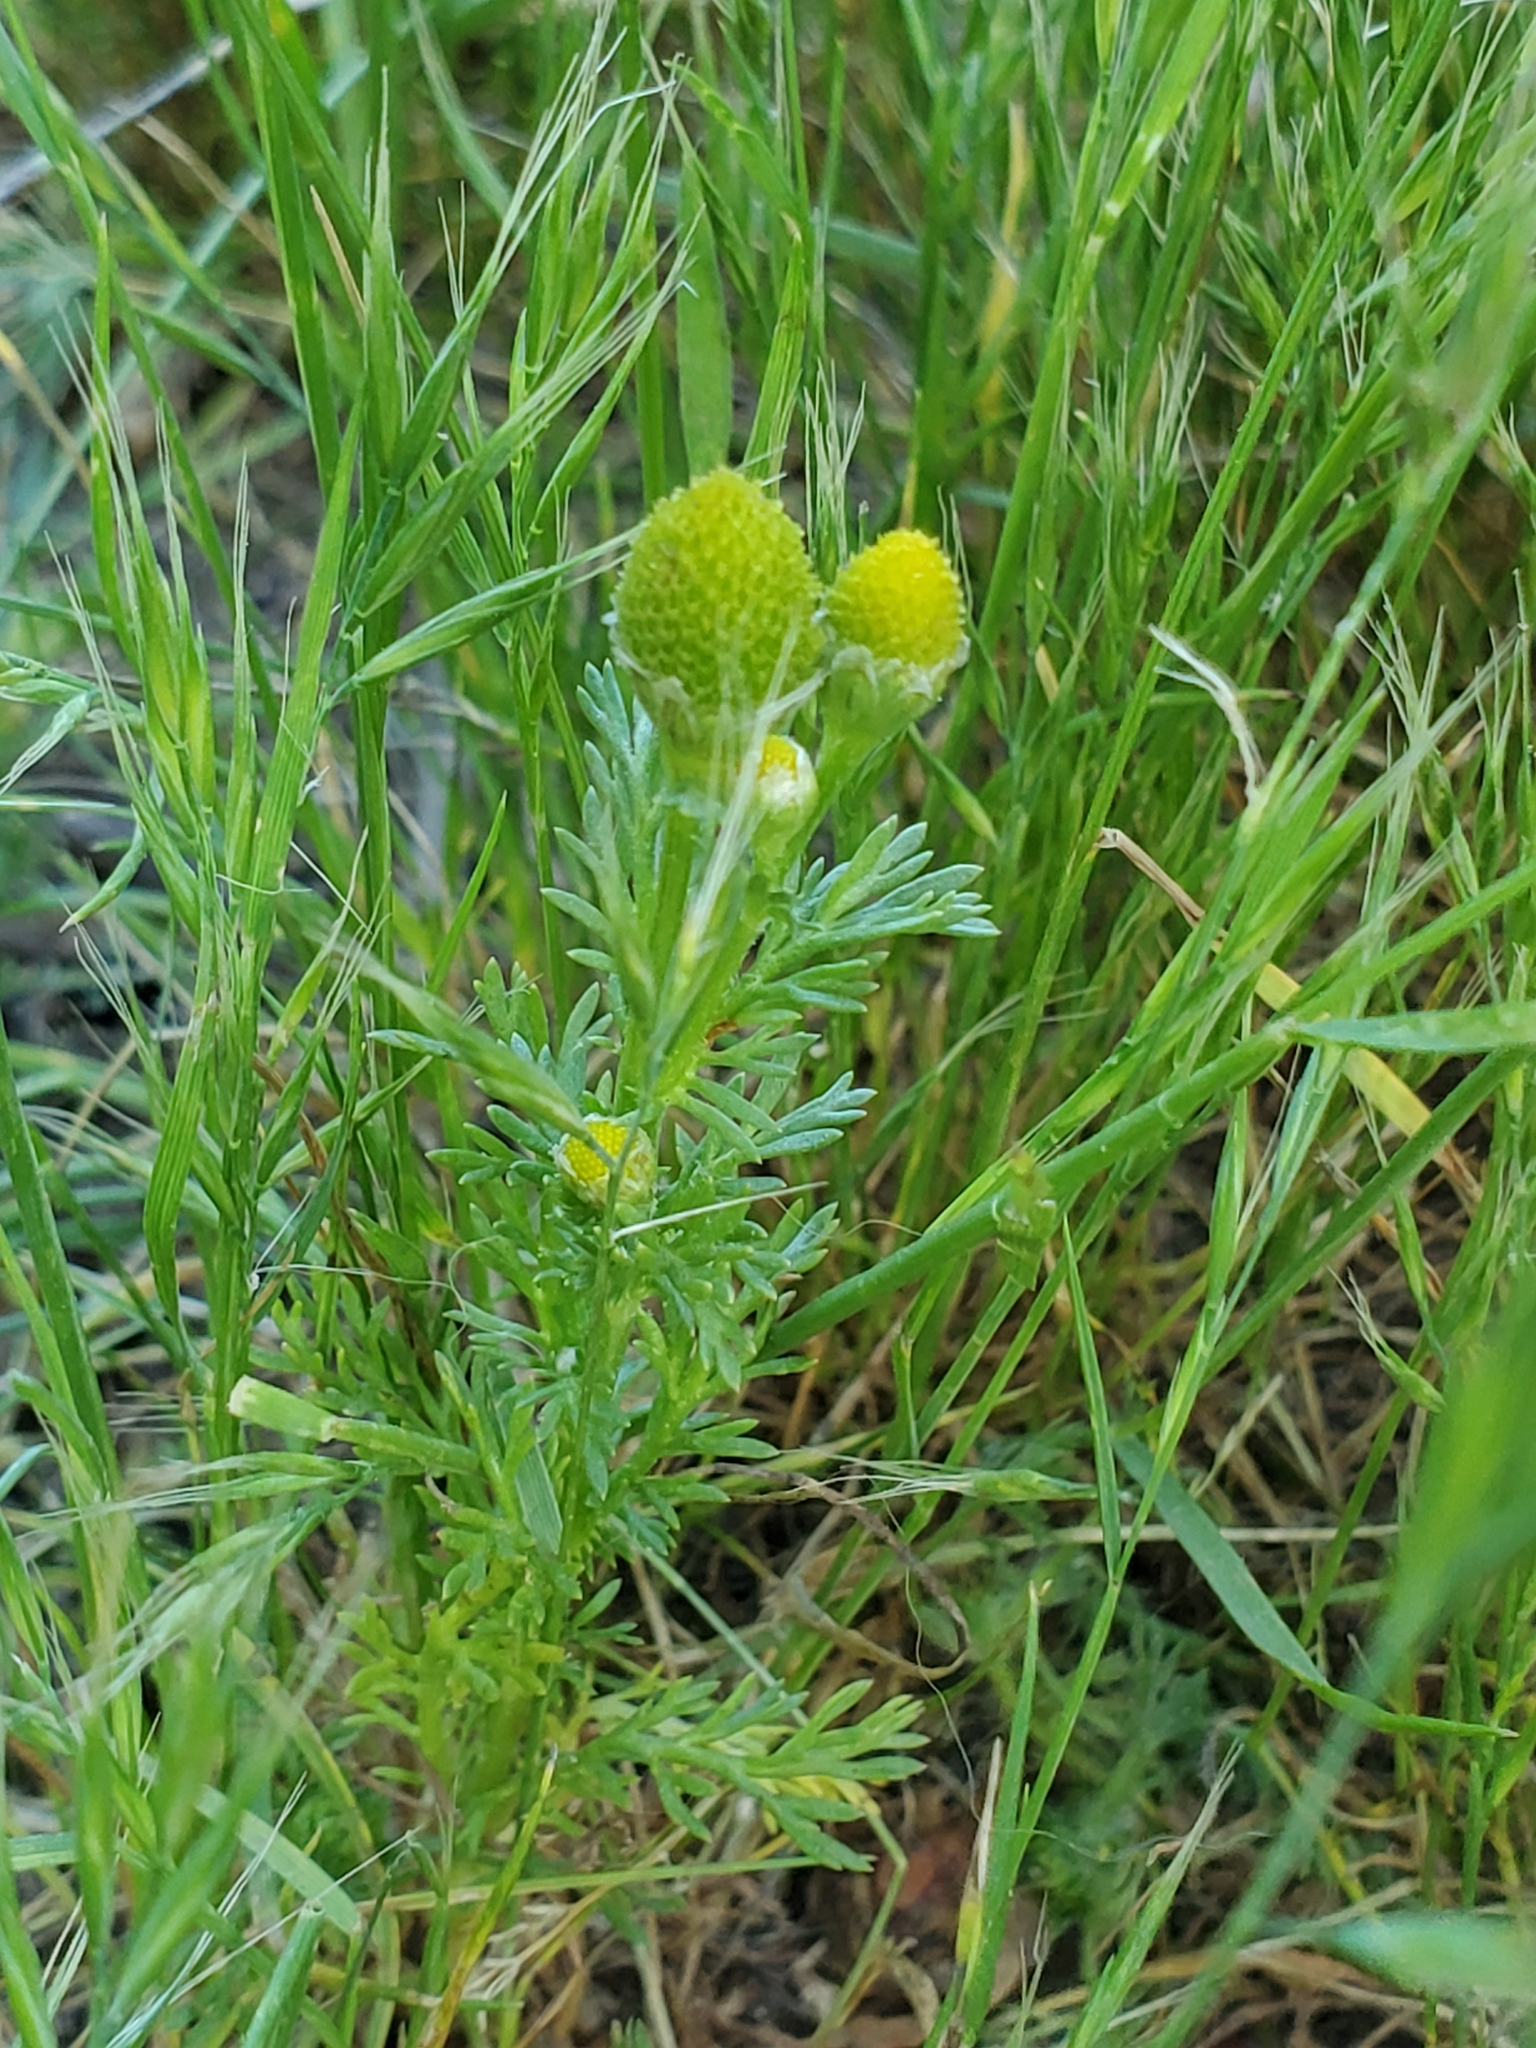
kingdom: Plantae
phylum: Tracheophyta
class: Magnoliopsida
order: Asterales
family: Asteraceae
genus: Matricaria
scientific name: Matricaria discoidea
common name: Disc mayweed
